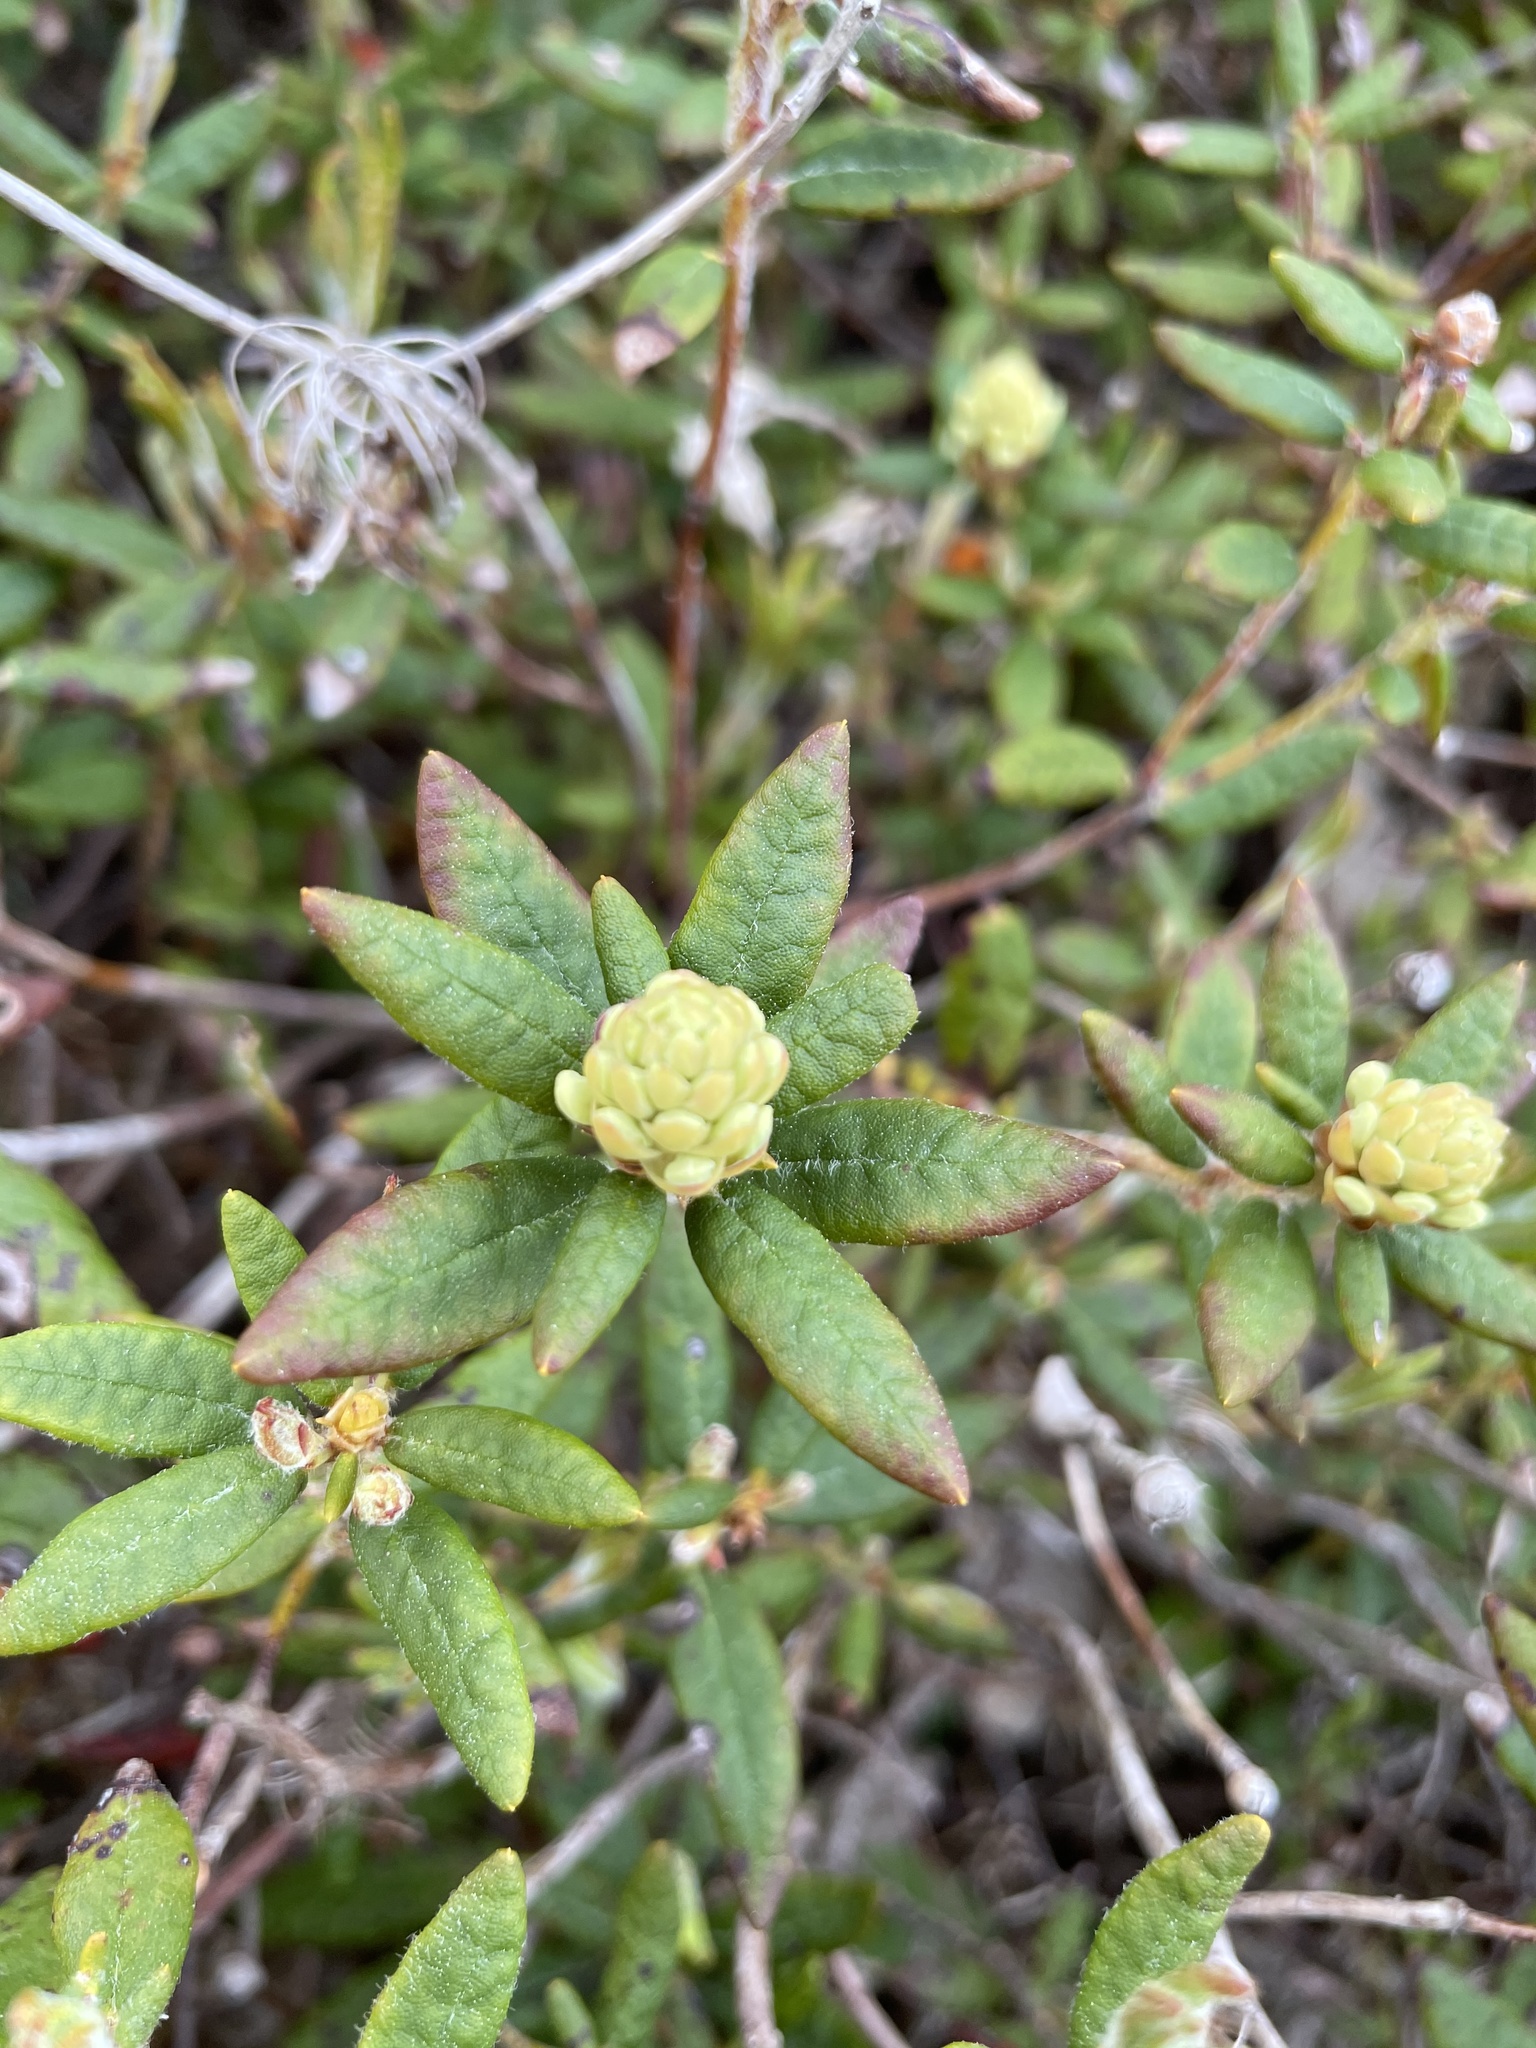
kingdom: Plantae
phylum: Tracheophyta
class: Magnoliopsida
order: Ericales
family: Ericaceae
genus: Rhododendron
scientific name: Rhododendron groenlandicum
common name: Bog labrador tea
